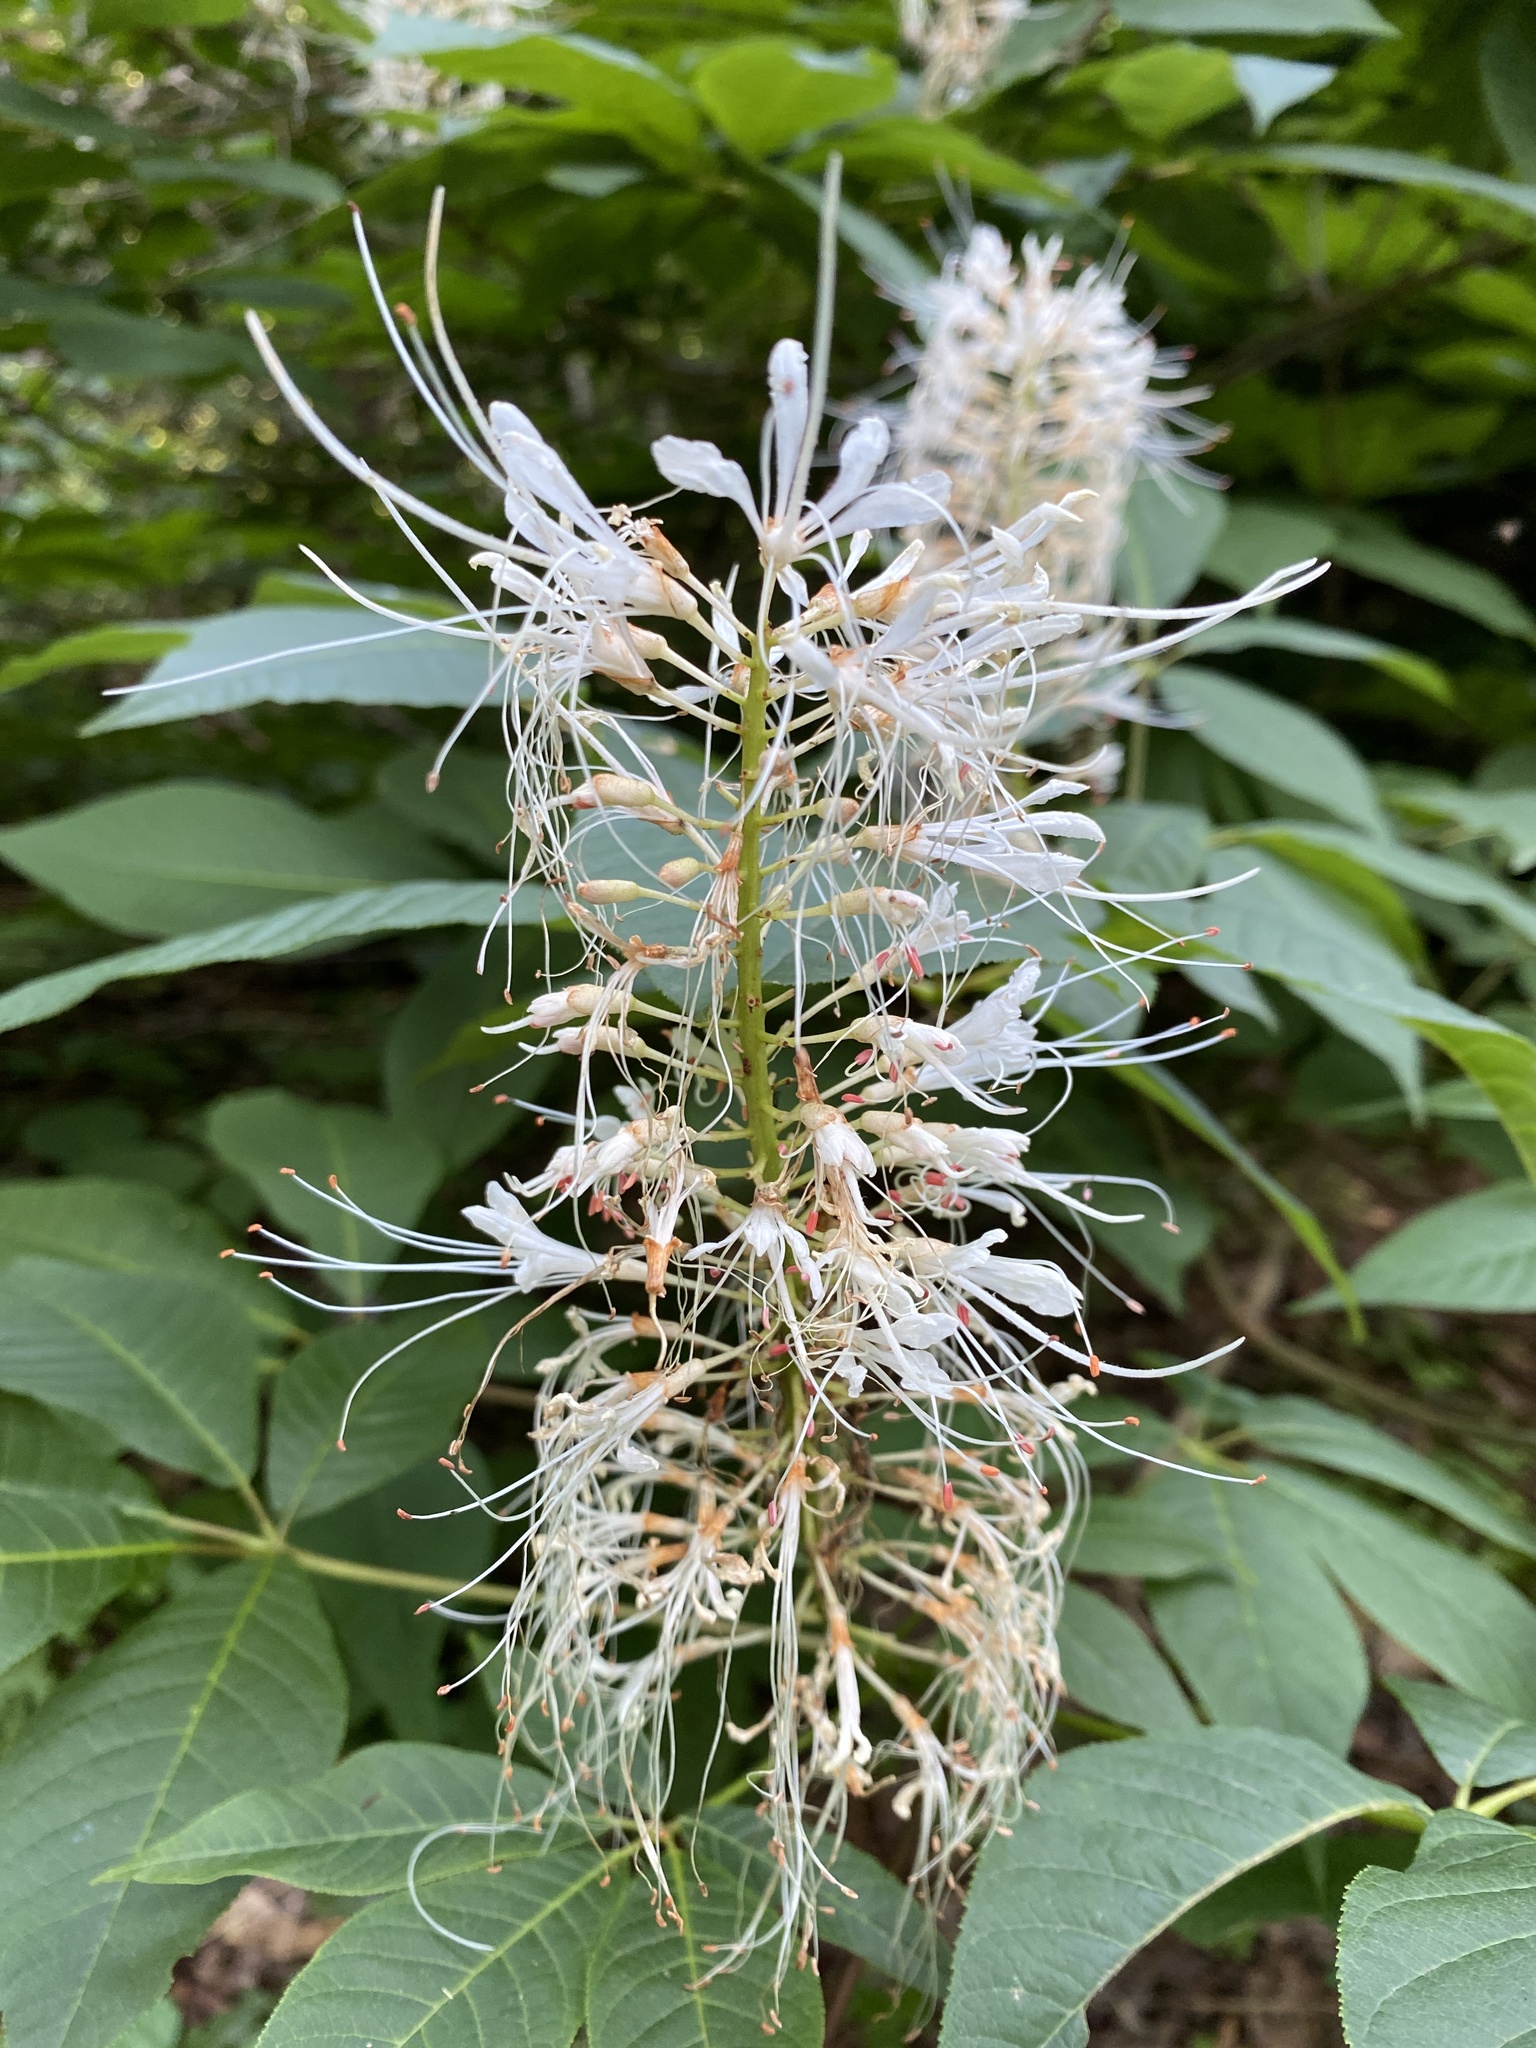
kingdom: Plantae
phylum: Tracheophyta
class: Magnoliopsida
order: Sapindales
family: Sapindaceae
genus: Aesculus
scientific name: Aesculus parviflora
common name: Bottlebrush buckeye
